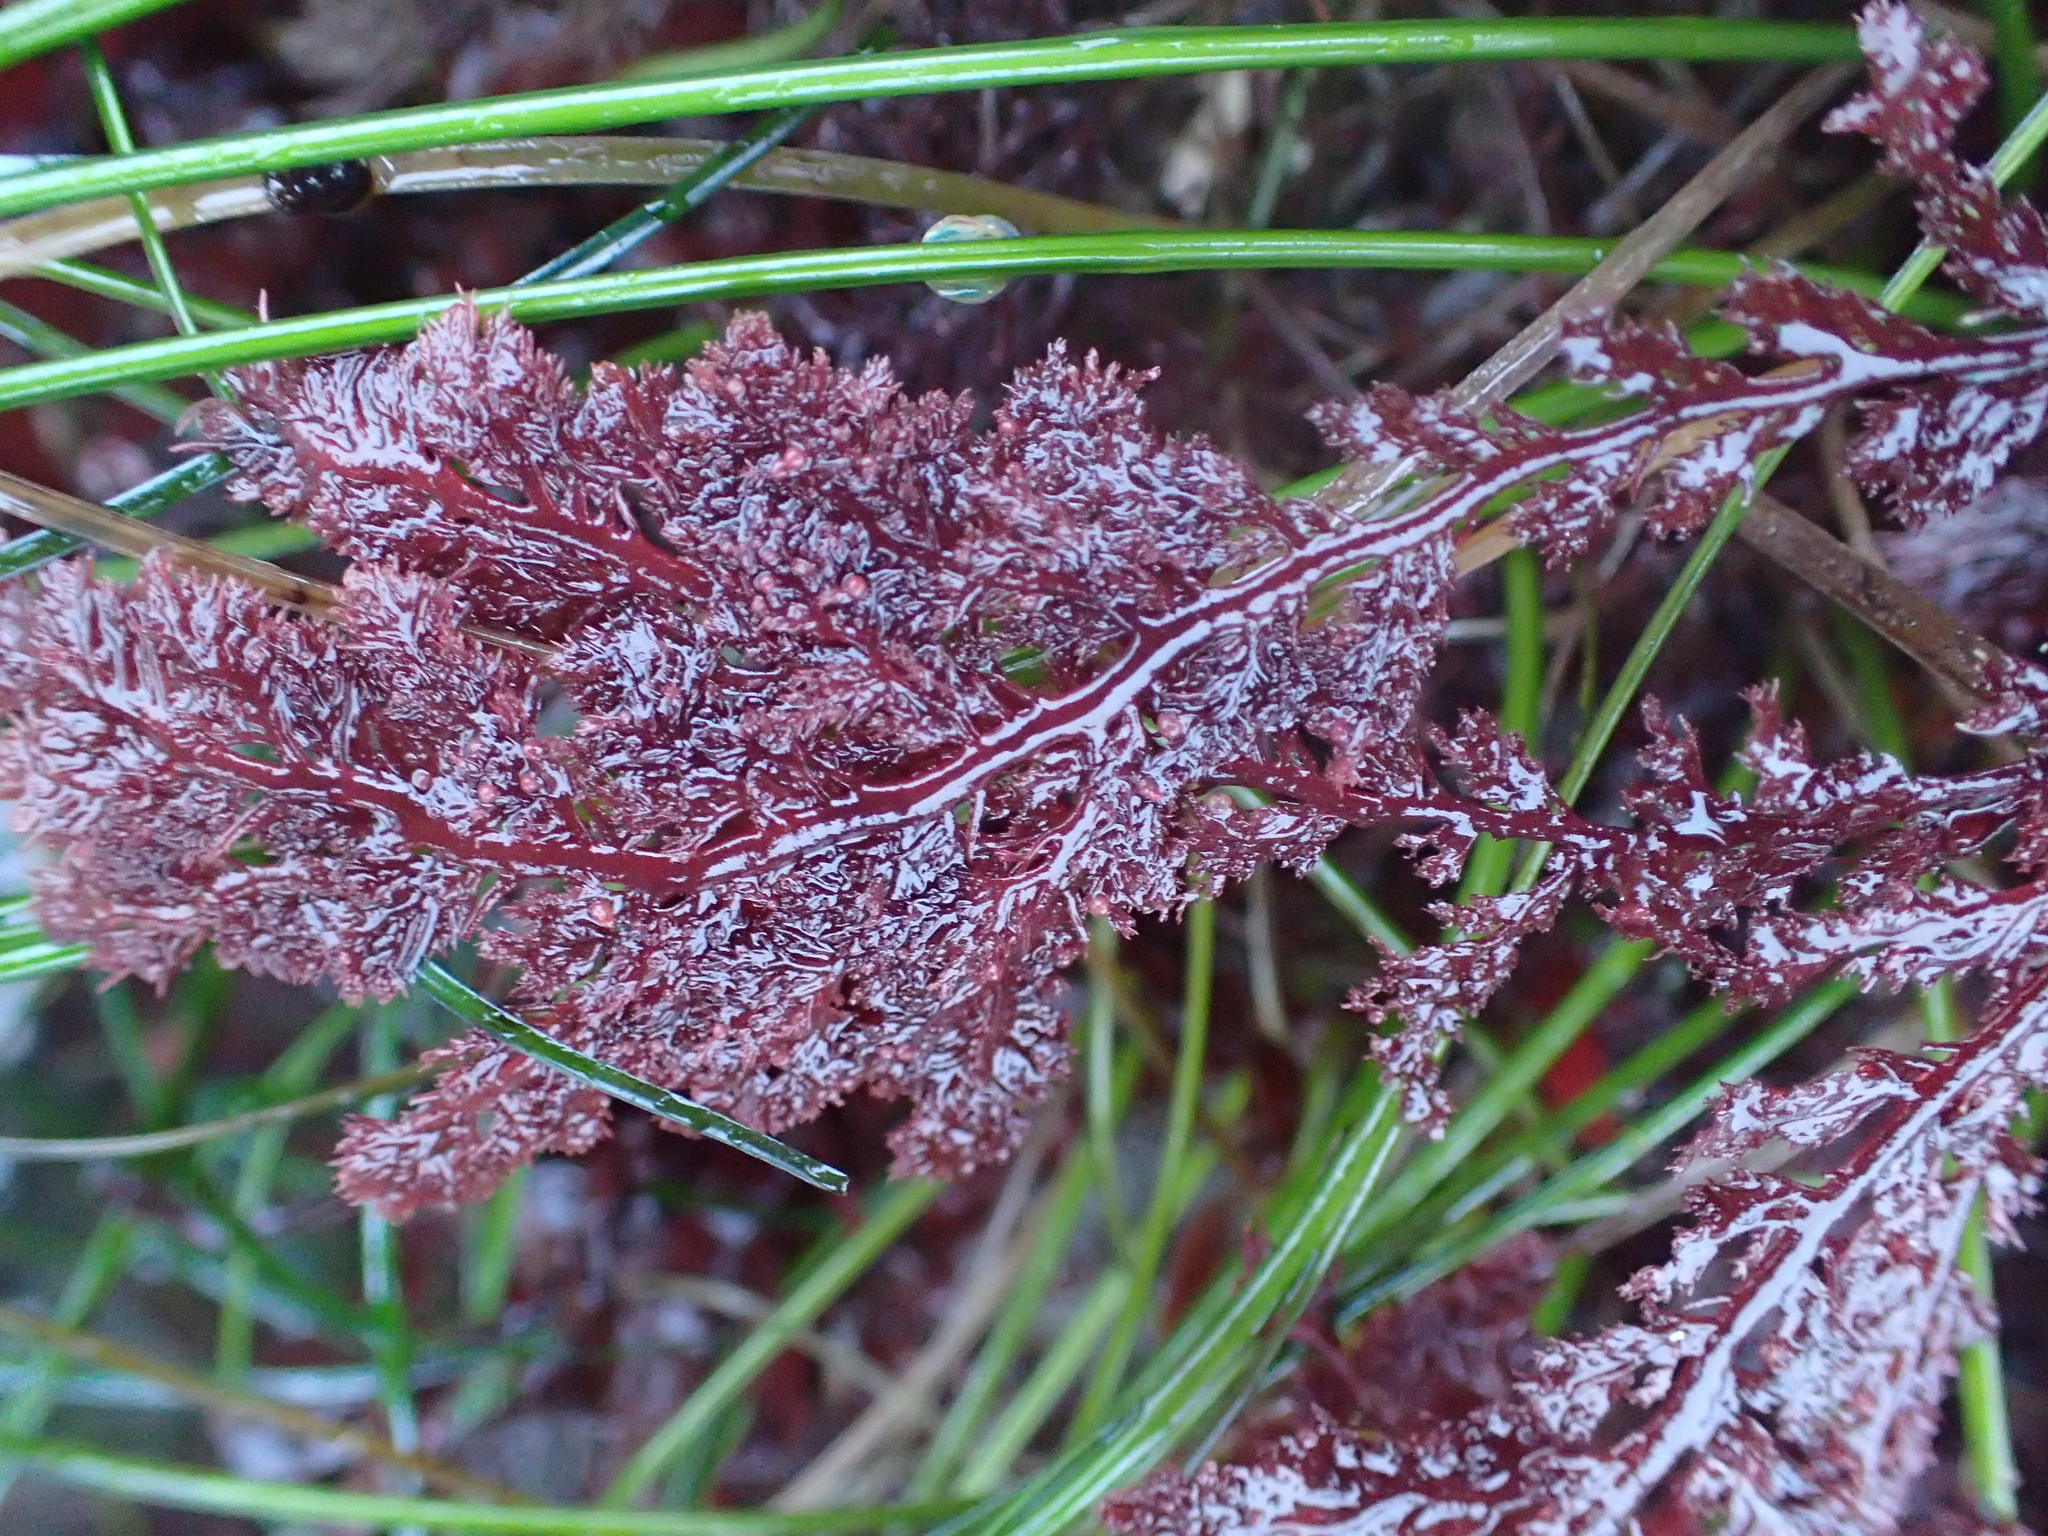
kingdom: Plantae
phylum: Rhodophyta
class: Florideophyceae
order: Plocamiales
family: Plocamiaceae
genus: Plocamium
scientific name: Plocamium cartilagineum
